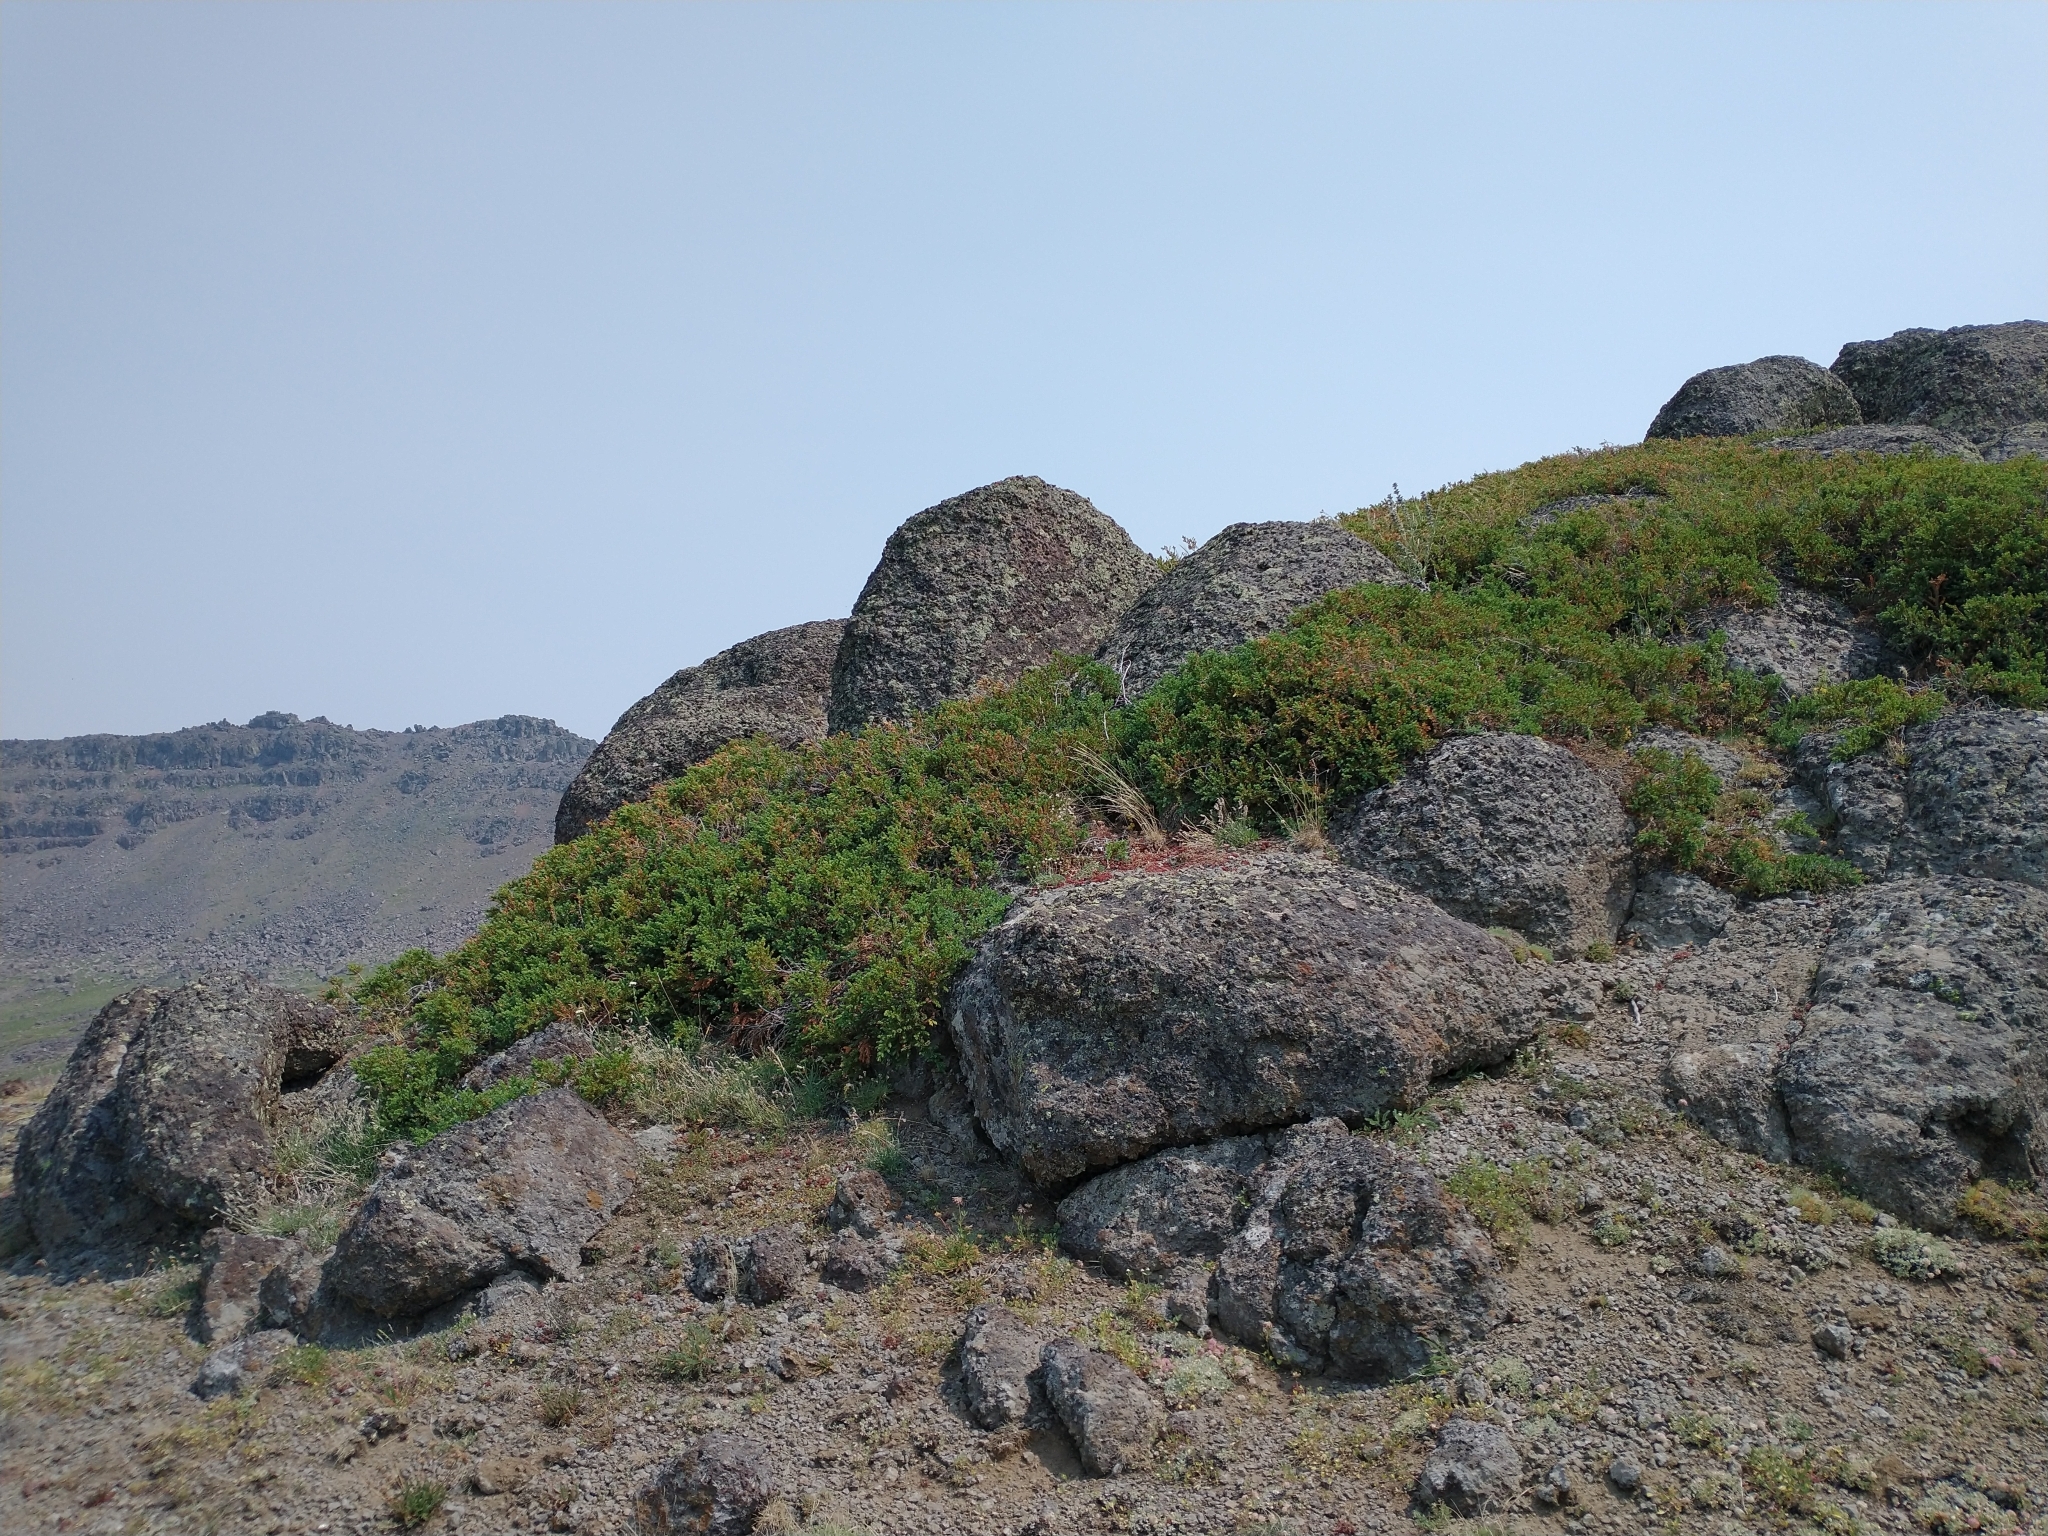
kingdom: Plantae
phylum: Tracheophyta
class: Pinopsida
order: Pinales
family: Cupressaceae
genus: Juniperus
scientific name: Juniperus communis
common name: Common juniper
